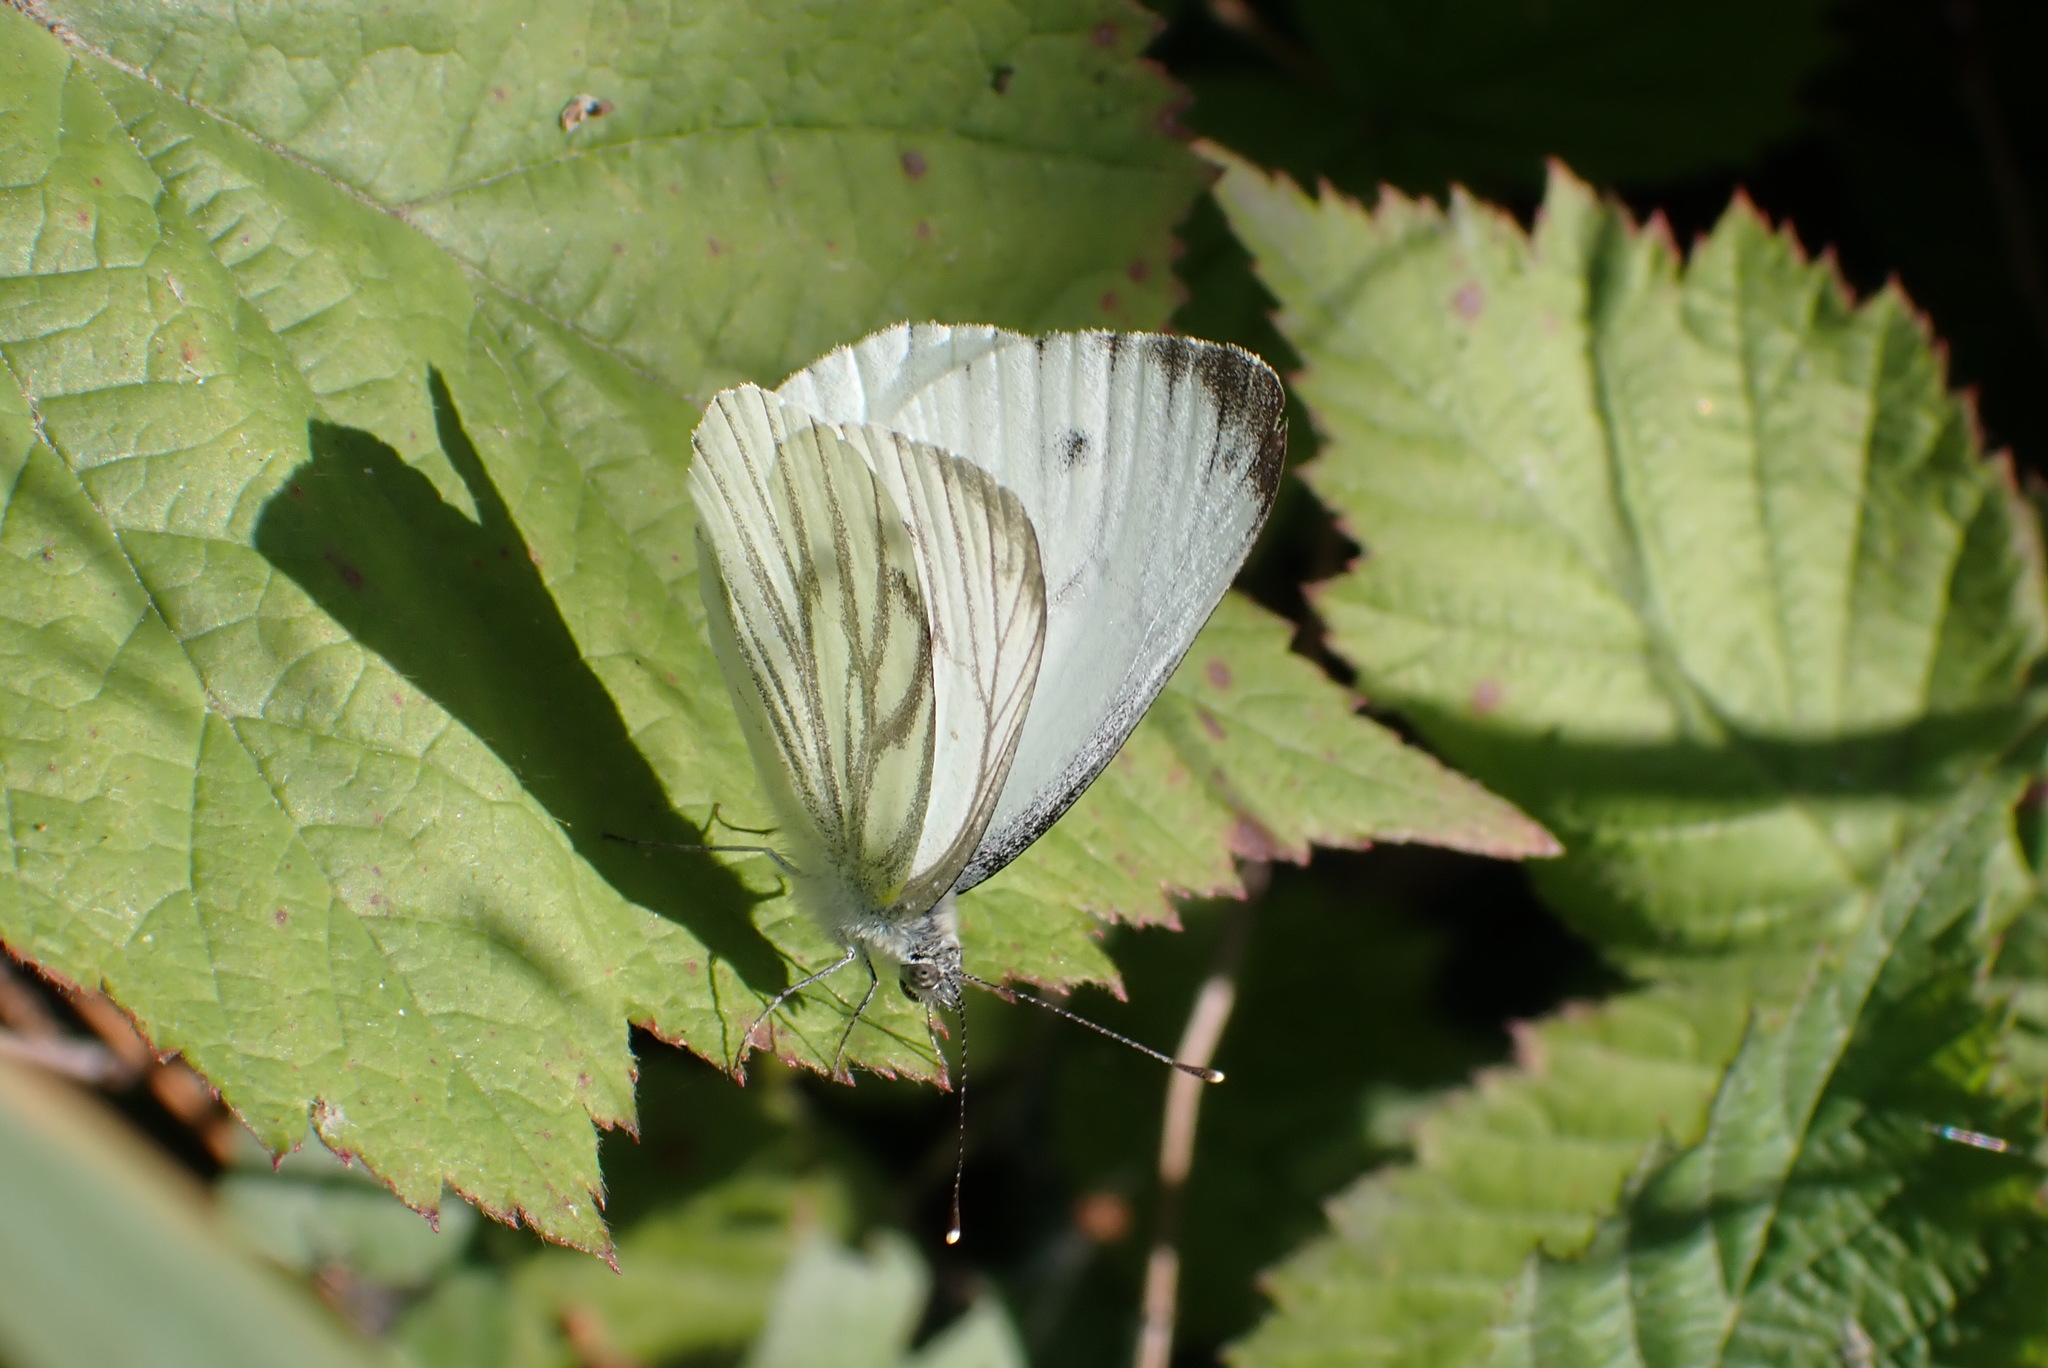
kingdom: Animalia
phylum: Arthropoda
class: Insecta
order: Lepidoptera
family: Pieridae
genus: Pieris
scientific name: Pieris napi
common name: Green-veined white
